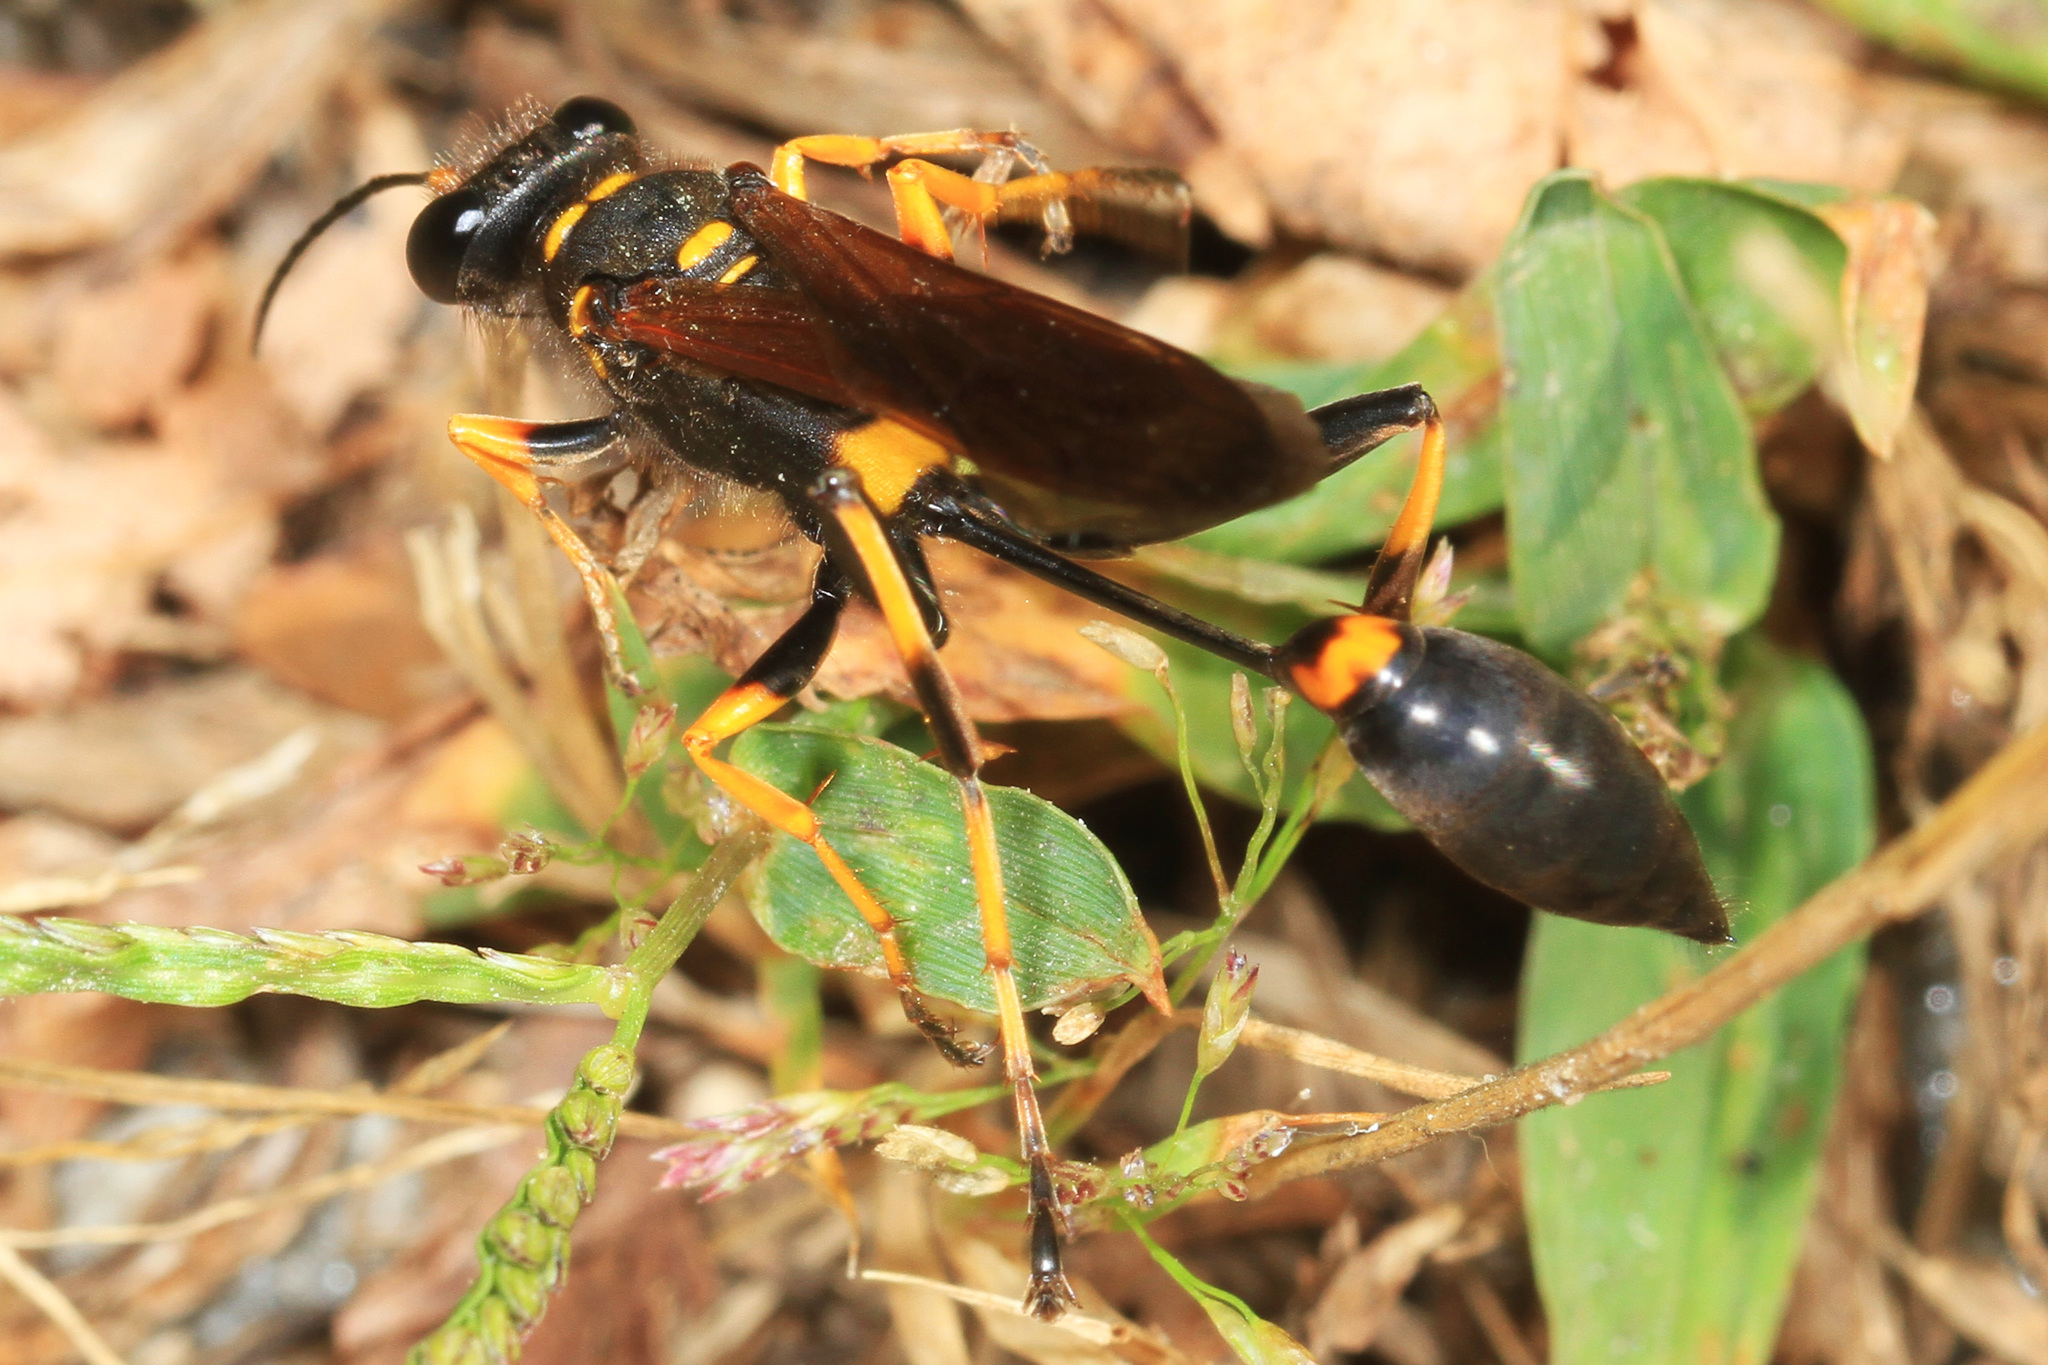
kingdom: Animalia
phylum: Arthropoda
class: Insecta
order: Hymenoptera
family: Sphecidae
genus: Sceliphron
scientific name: Sceliphron caementarium
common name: Mud dauber
